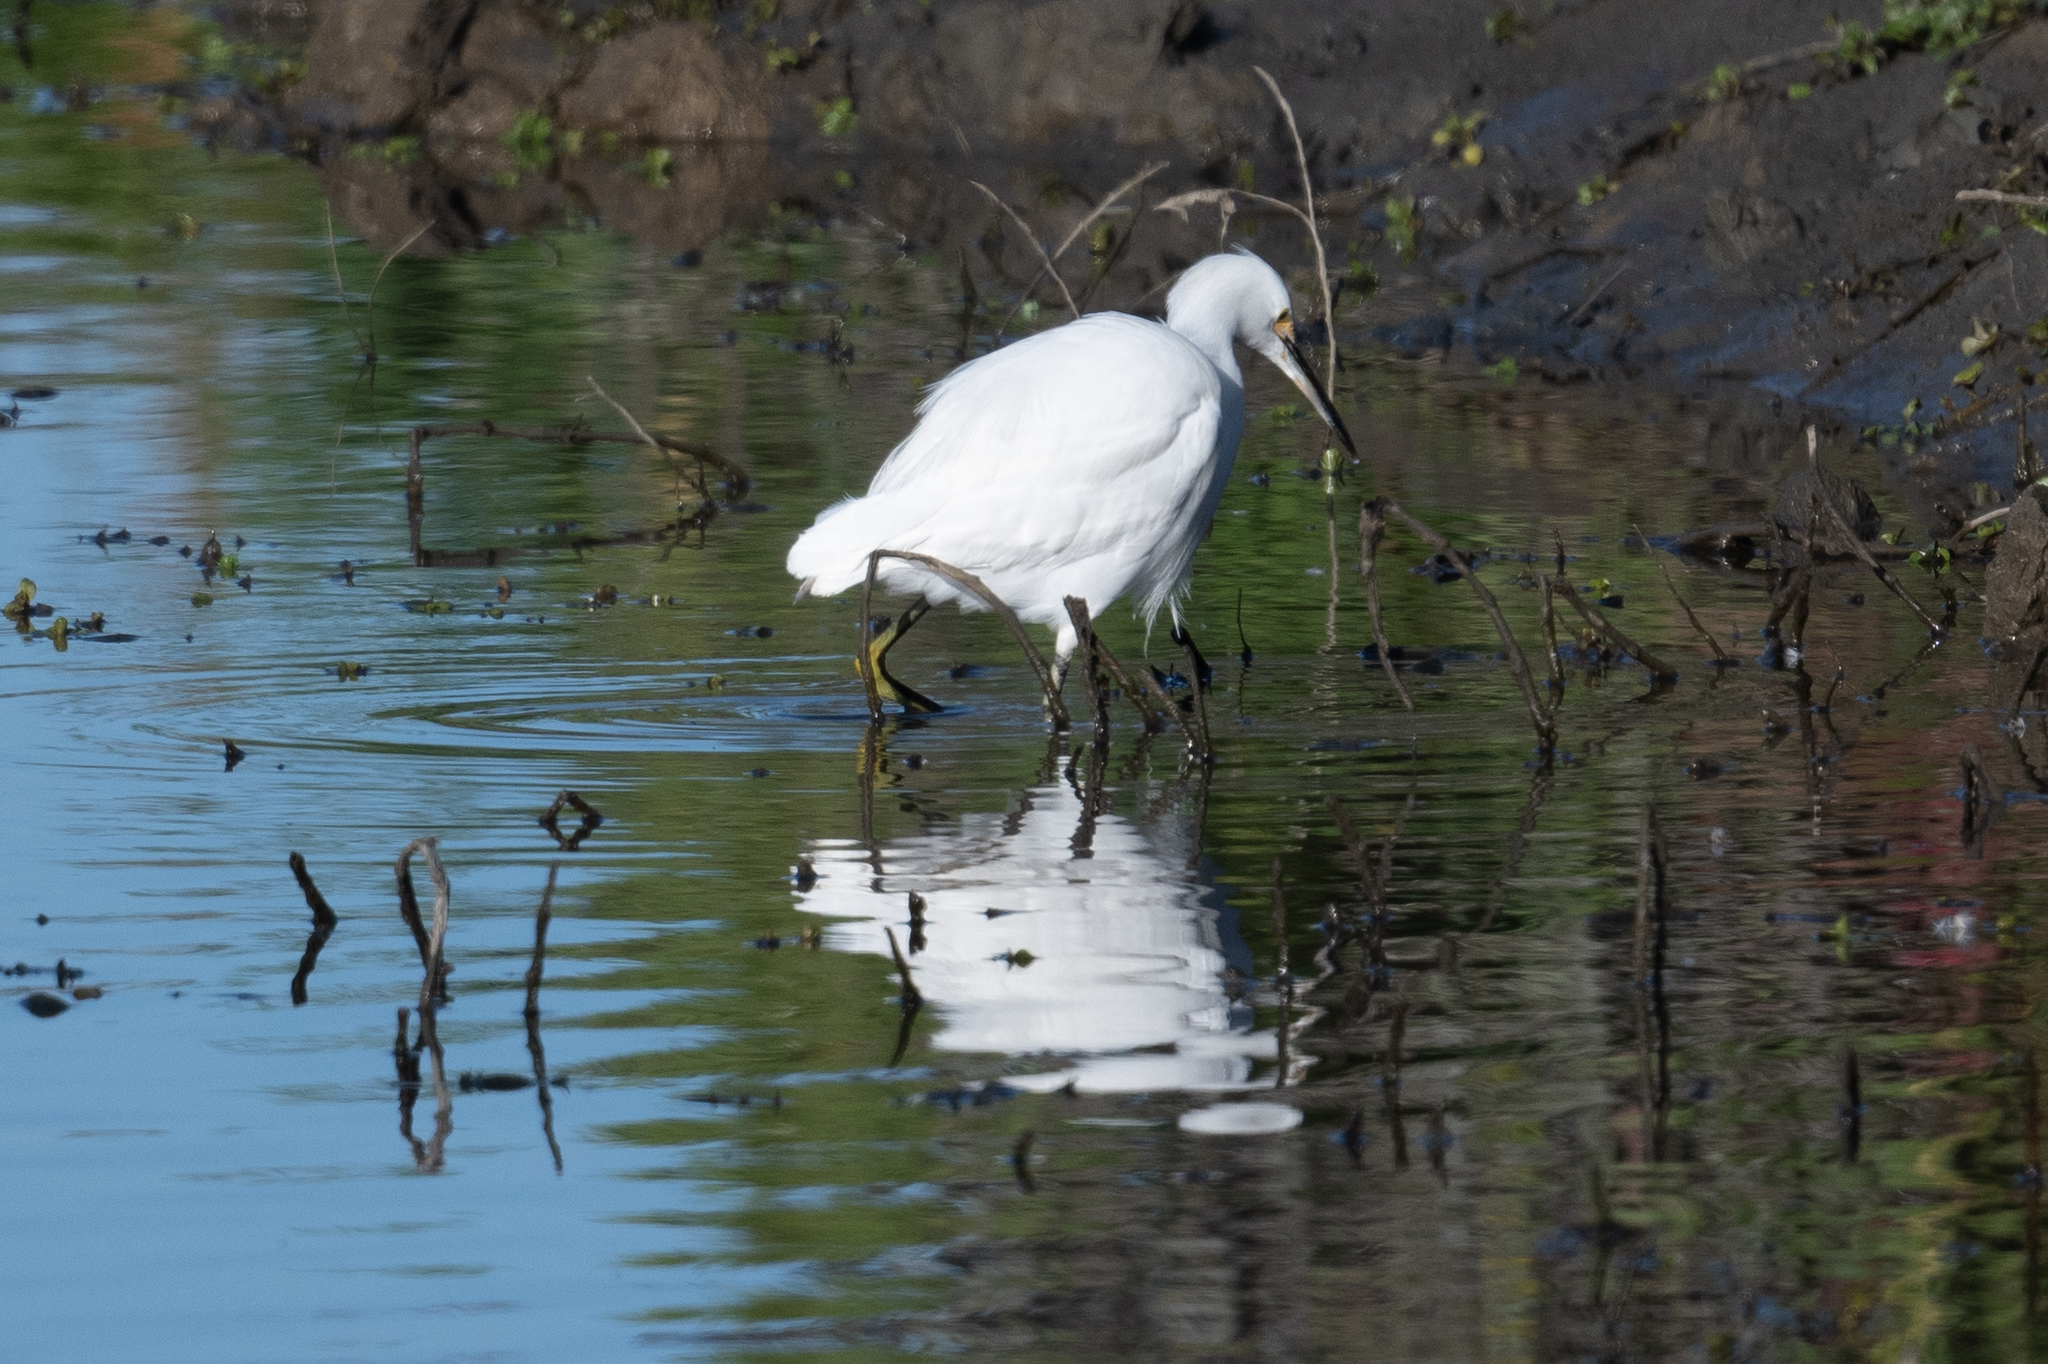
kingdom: Animalia
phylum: Chordata
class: Aves
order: Pelecaniformes
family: Ardeidae
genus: Egretta
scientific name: Egretta thula
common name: Snowy egret
